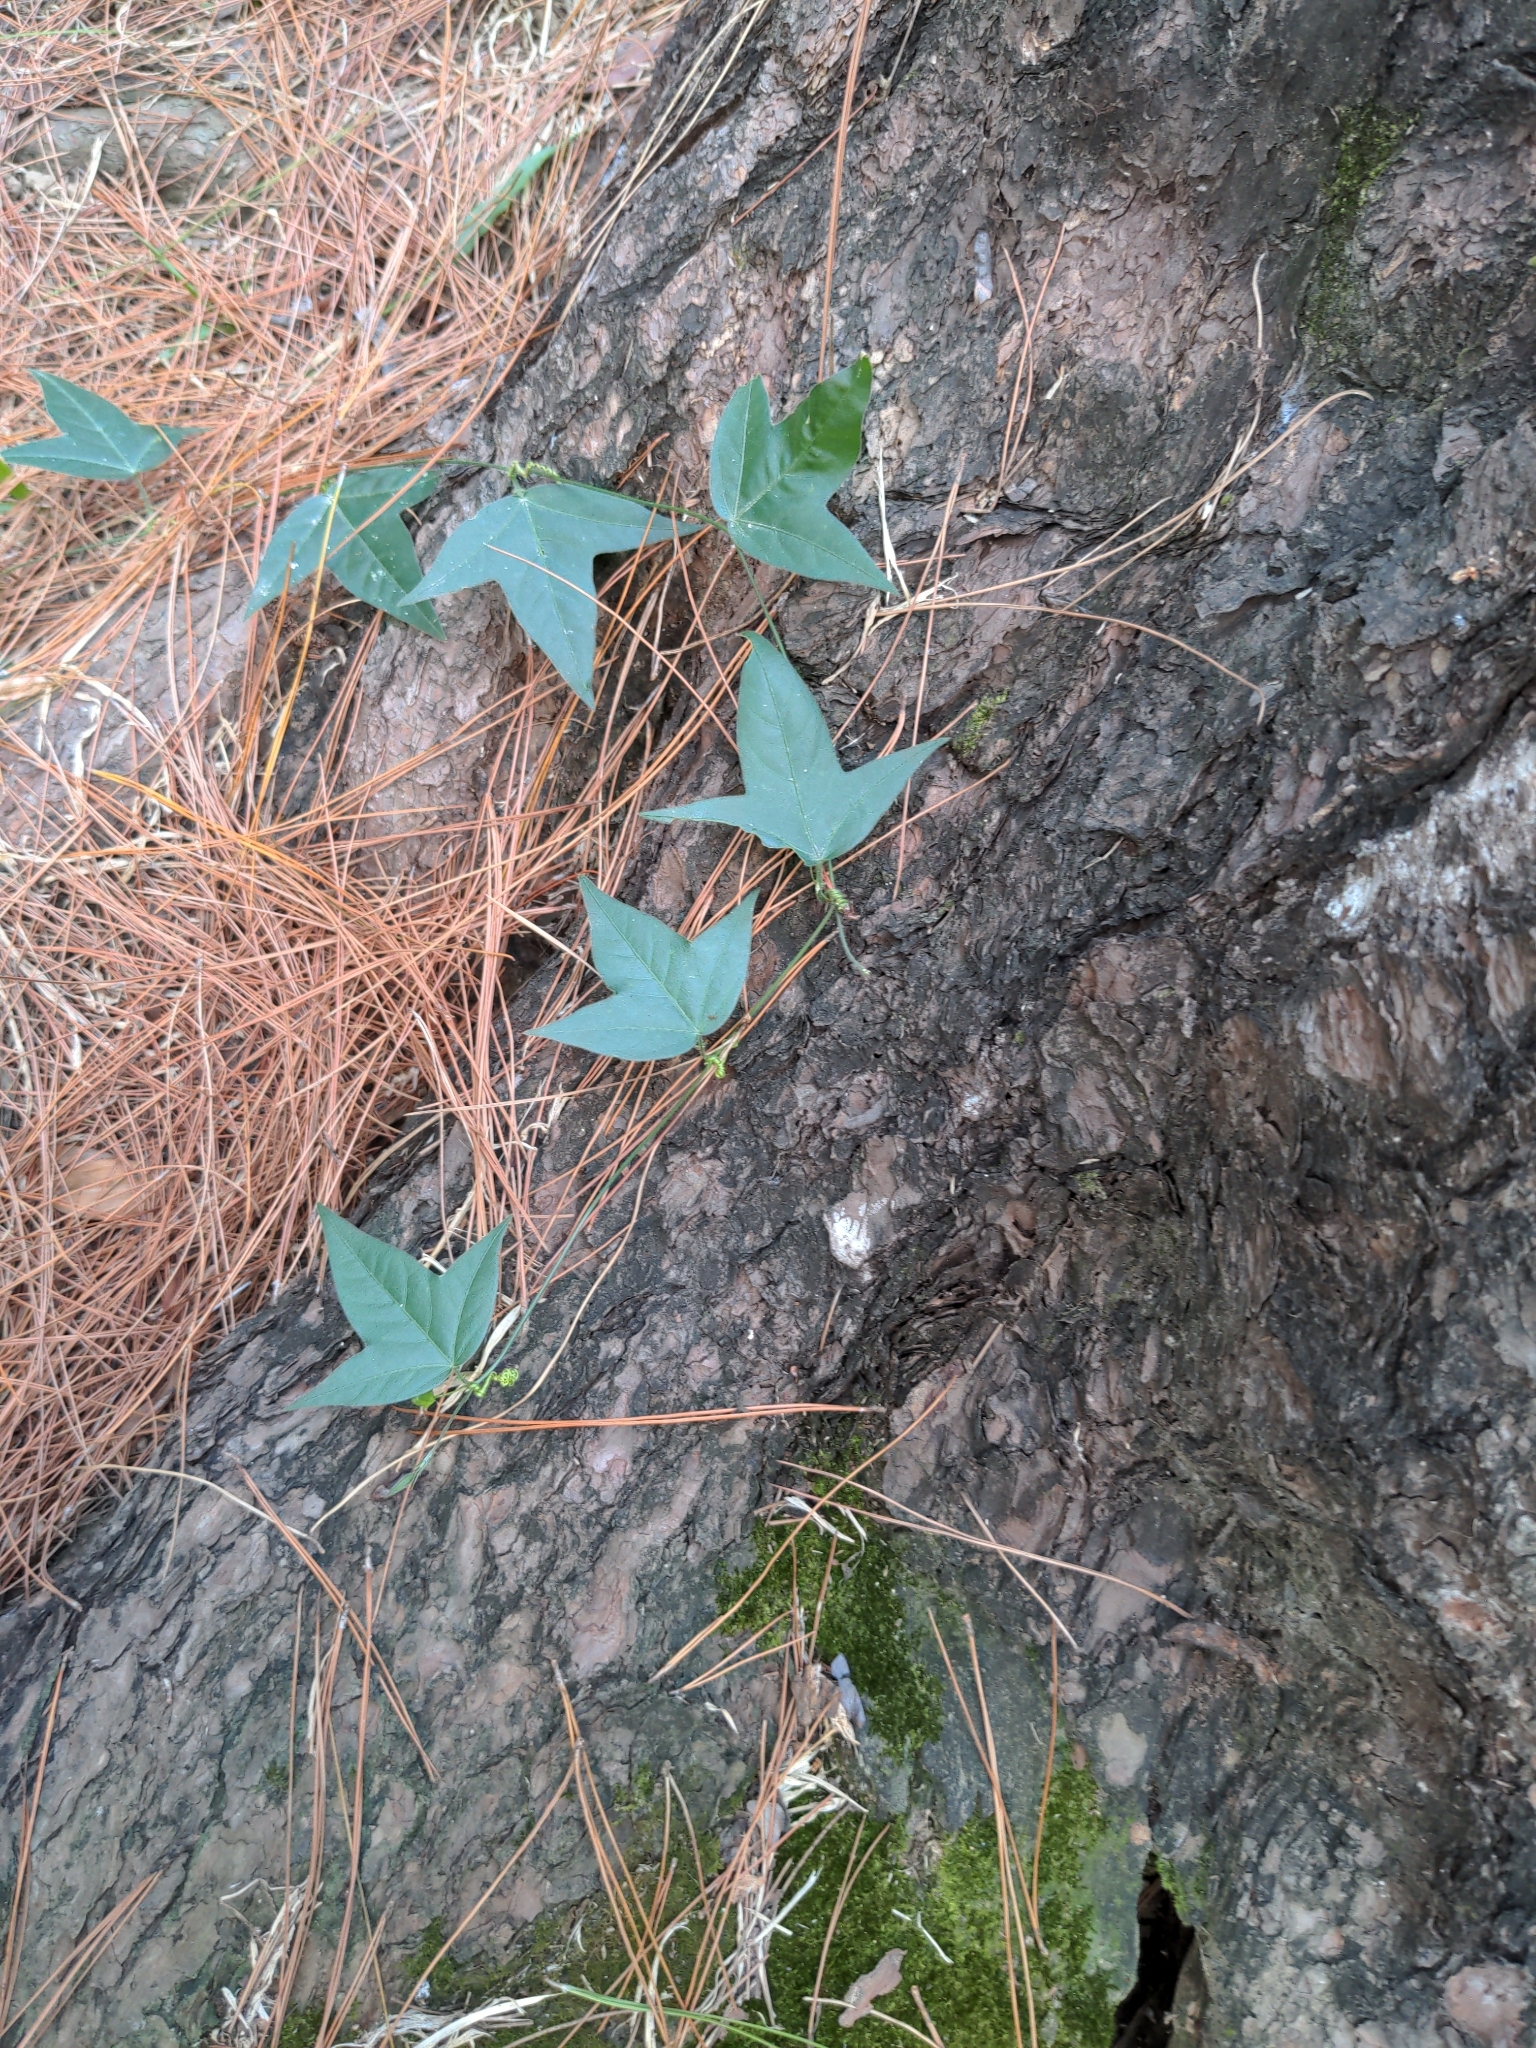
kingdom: Plantae
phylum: Tracheophyta
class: Magnoliopsida
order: Malpighiales
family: Passifloraceae
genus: Passiflora
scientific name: Passiflora suberosa
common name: Wild passionfruit
